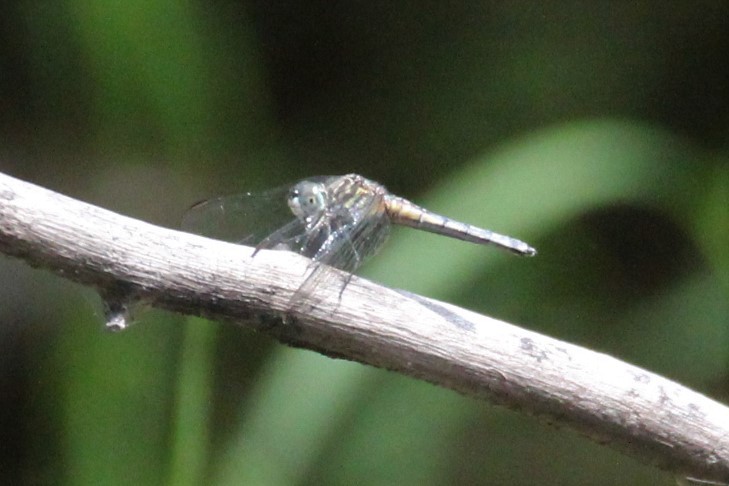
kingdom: Animalia
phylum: Arthropoda
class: Insecta
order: Odonata
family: Libellulidae
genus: Pachydiplax
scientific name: Pachydiplax longipennis
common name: Blue dasher
